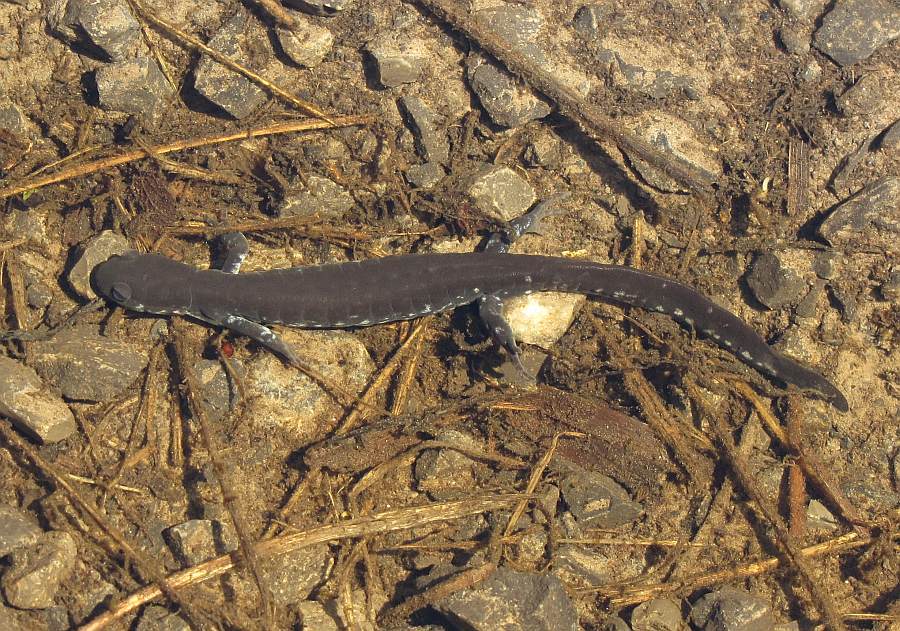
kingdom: Animalia
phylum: Chordata
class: Amphibia
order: Caudata
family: Ambystomatidae
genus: Ambystoma
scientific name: Ambystoma laterale
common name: Blue-spotted salamander
